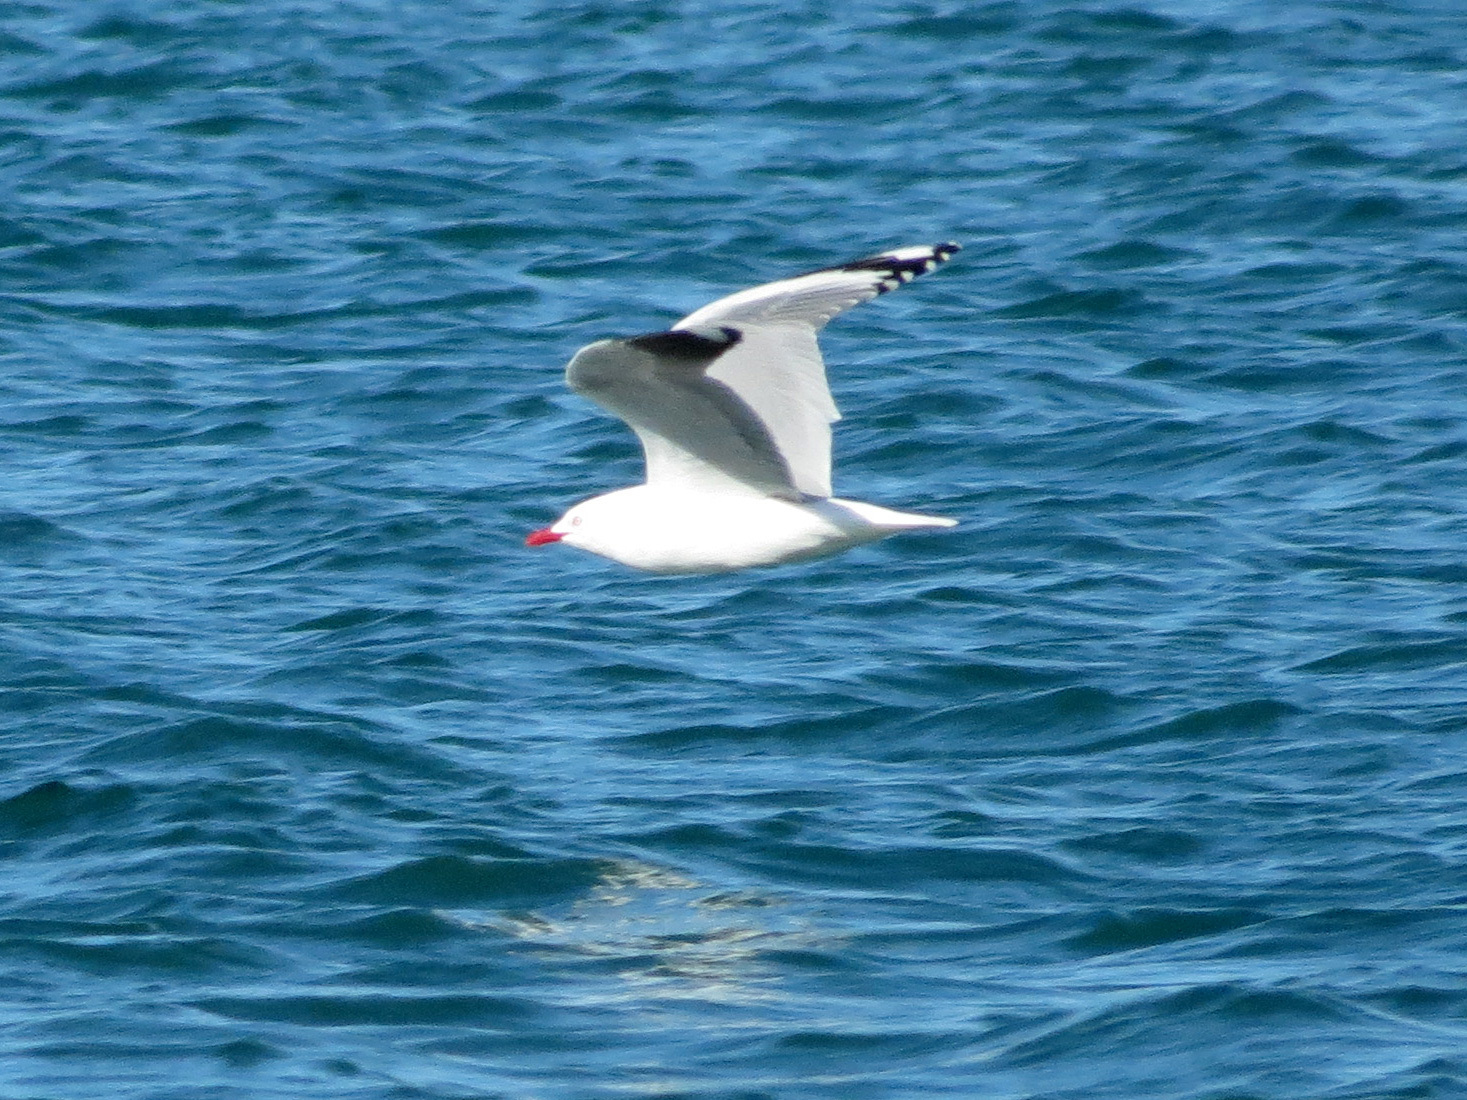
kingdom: Animalia
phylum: Chordata
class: Aves
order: Charadriiformes
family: Laridae
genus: Chroicocephalus
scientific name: Chroicocephalus novaehollandiae
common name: Silver gull
